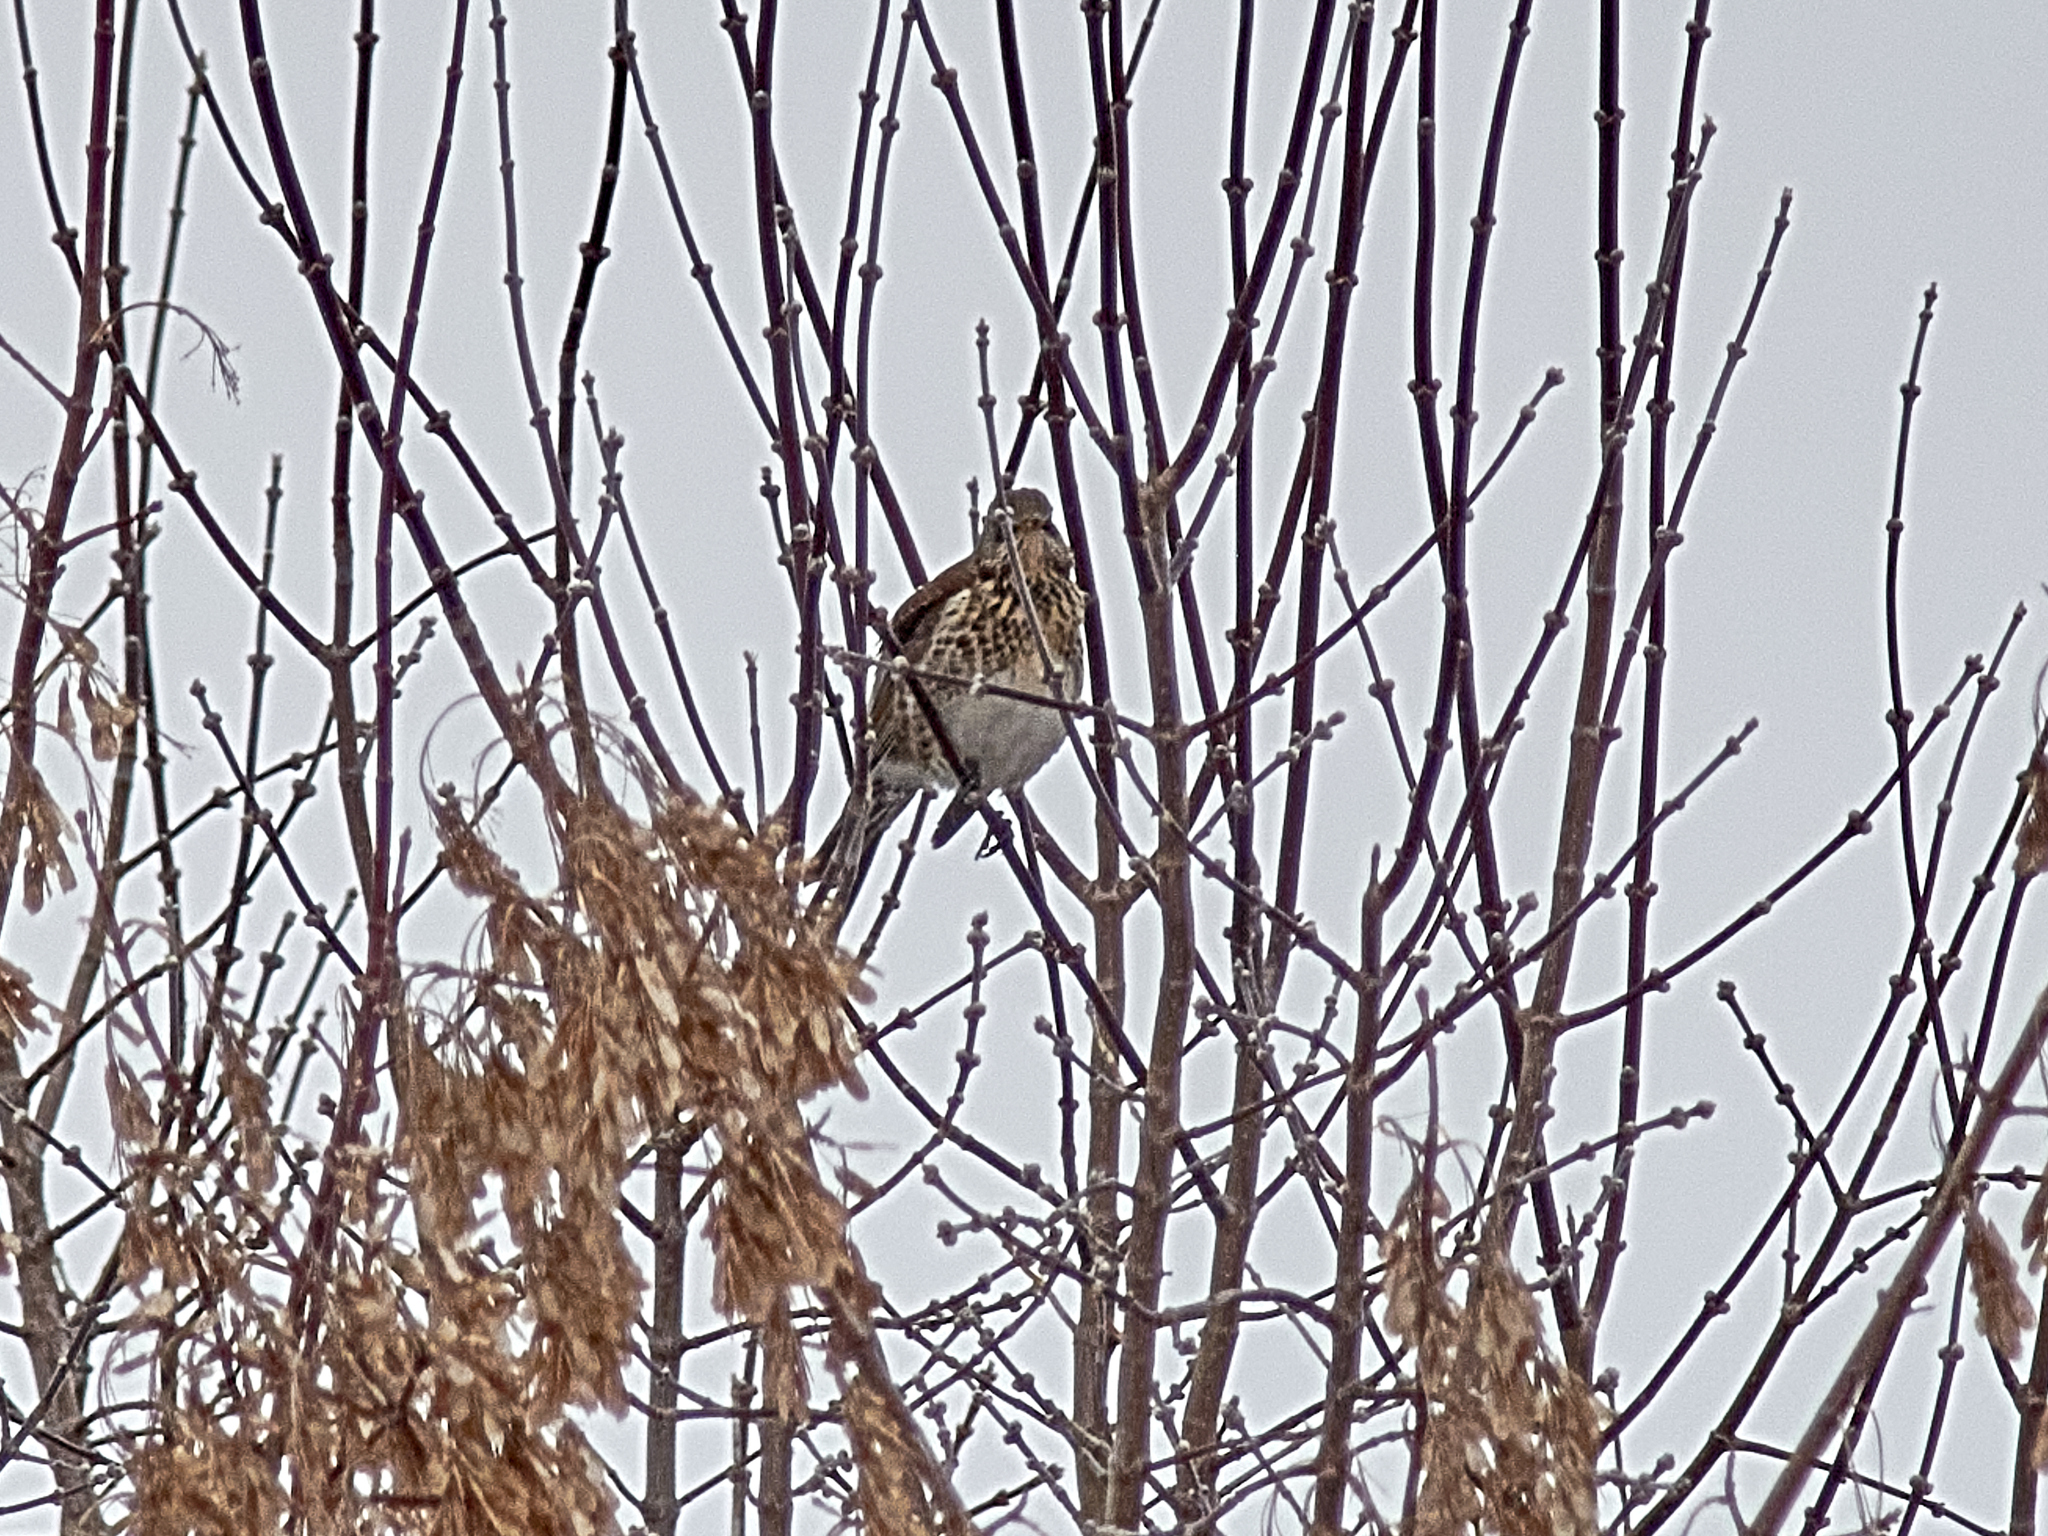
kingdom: Animalia
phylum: Chordata
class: Aves
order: Passeriformes
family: Turdidae
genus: Turdus
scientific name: Turdus pilaris
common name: Fieldfare
